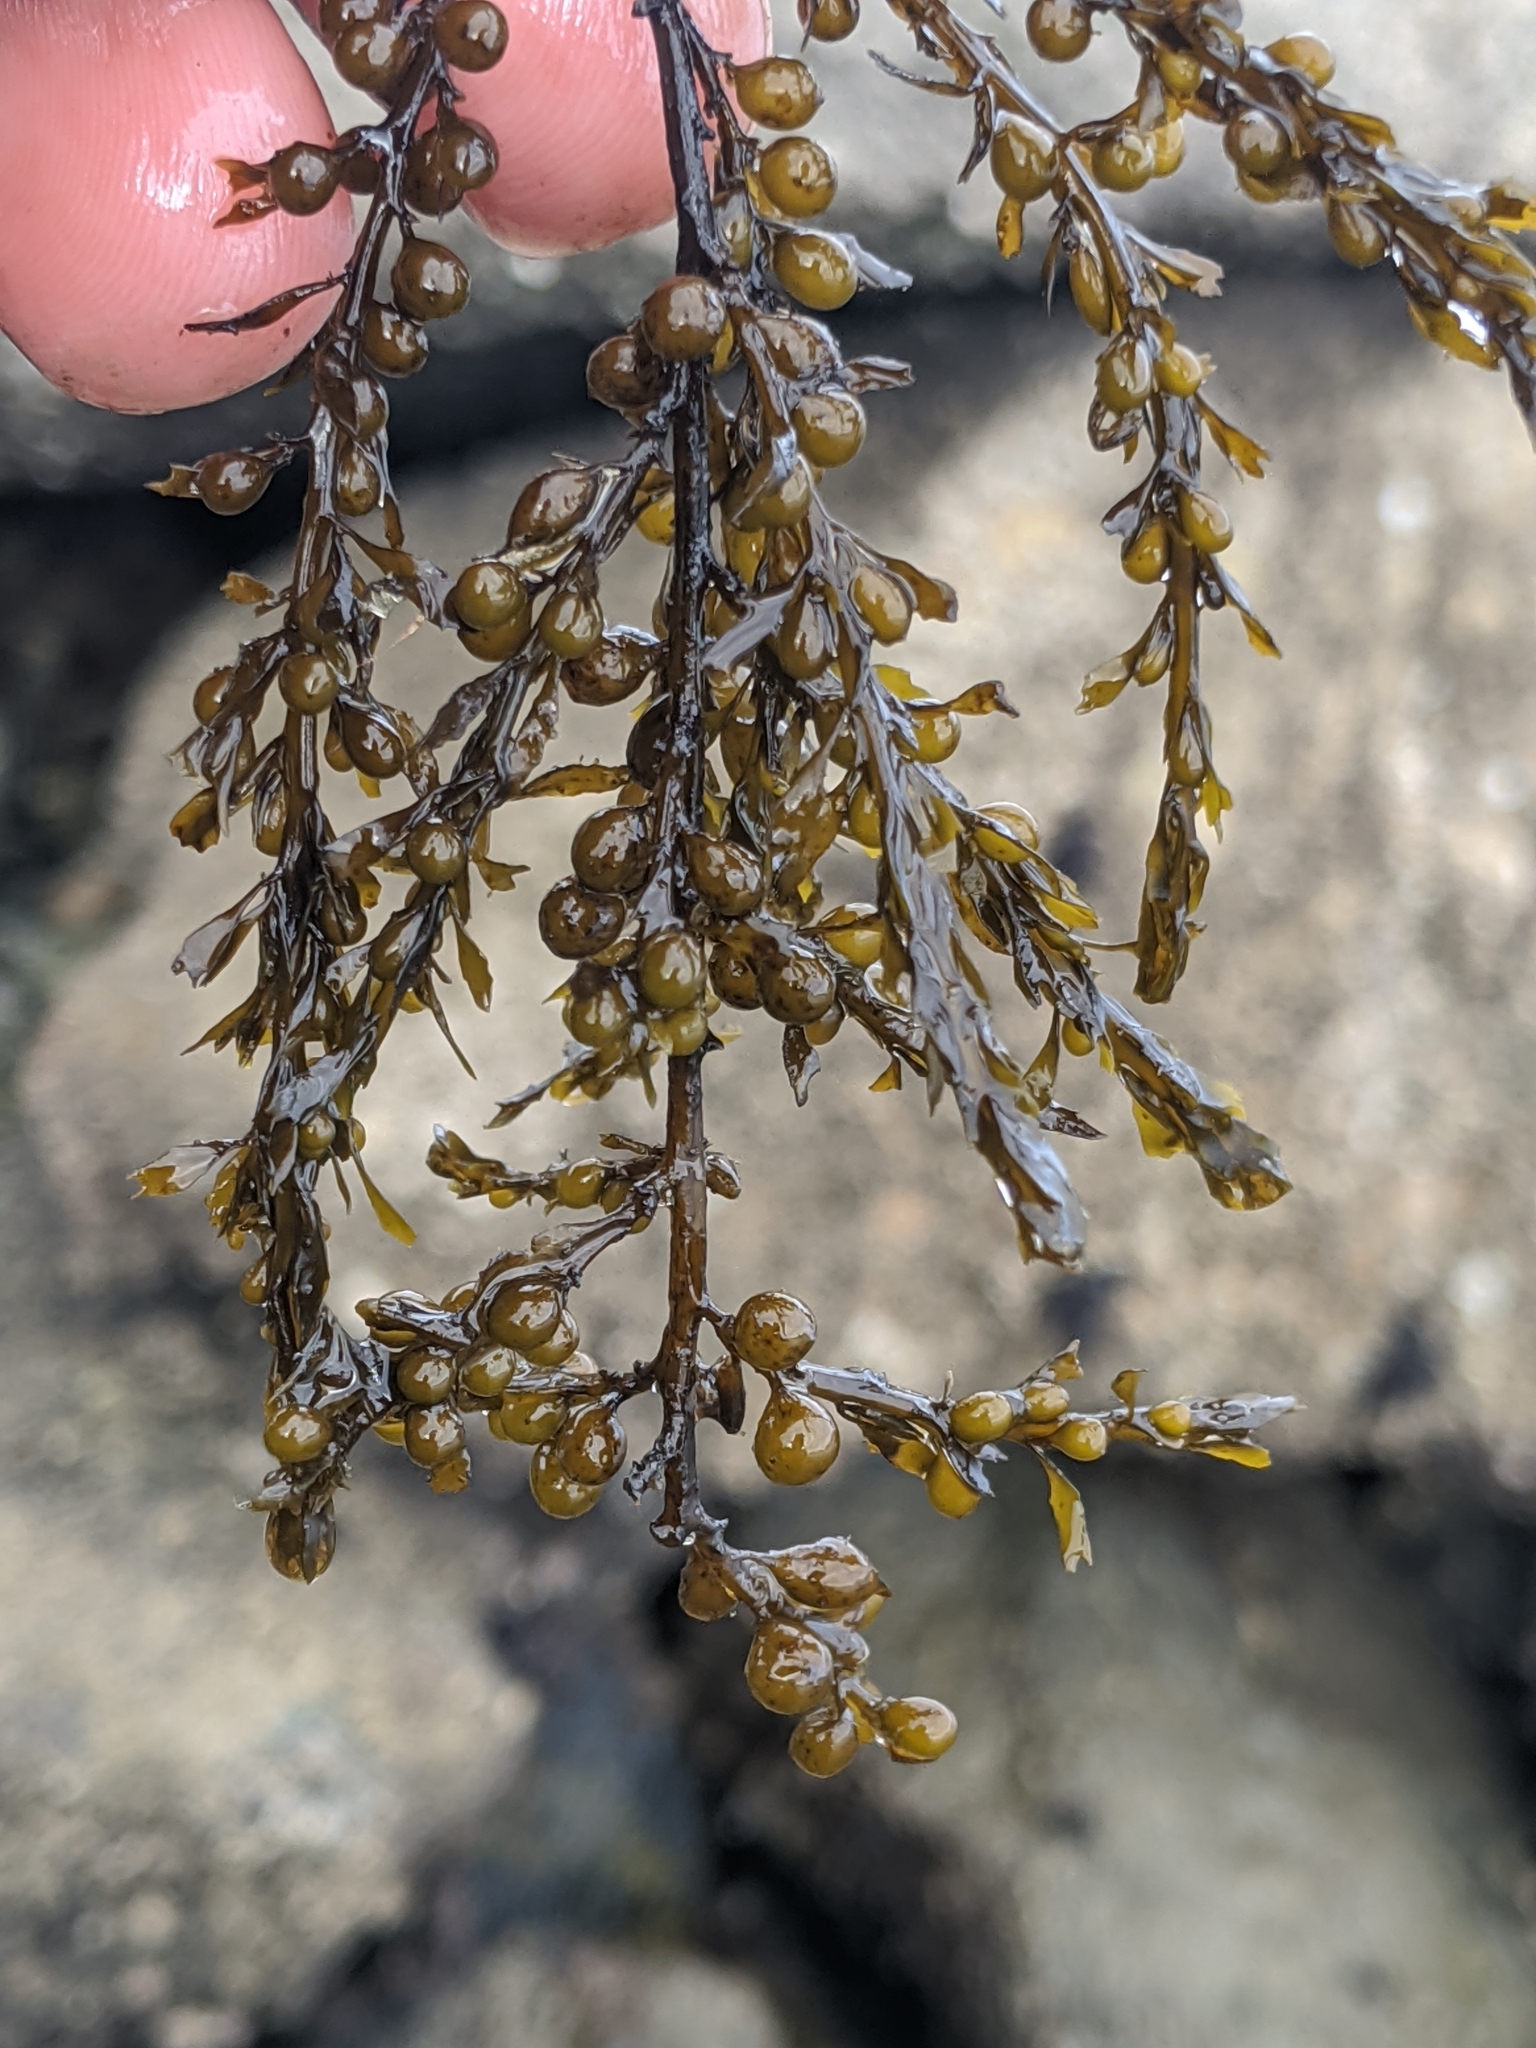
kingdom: Chromista
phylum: Ochrophyta
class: Phaeophyceae
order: Fucales
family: Sargassaceae
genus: Sargassum
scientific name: Sargassum muticum
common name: Japweed
